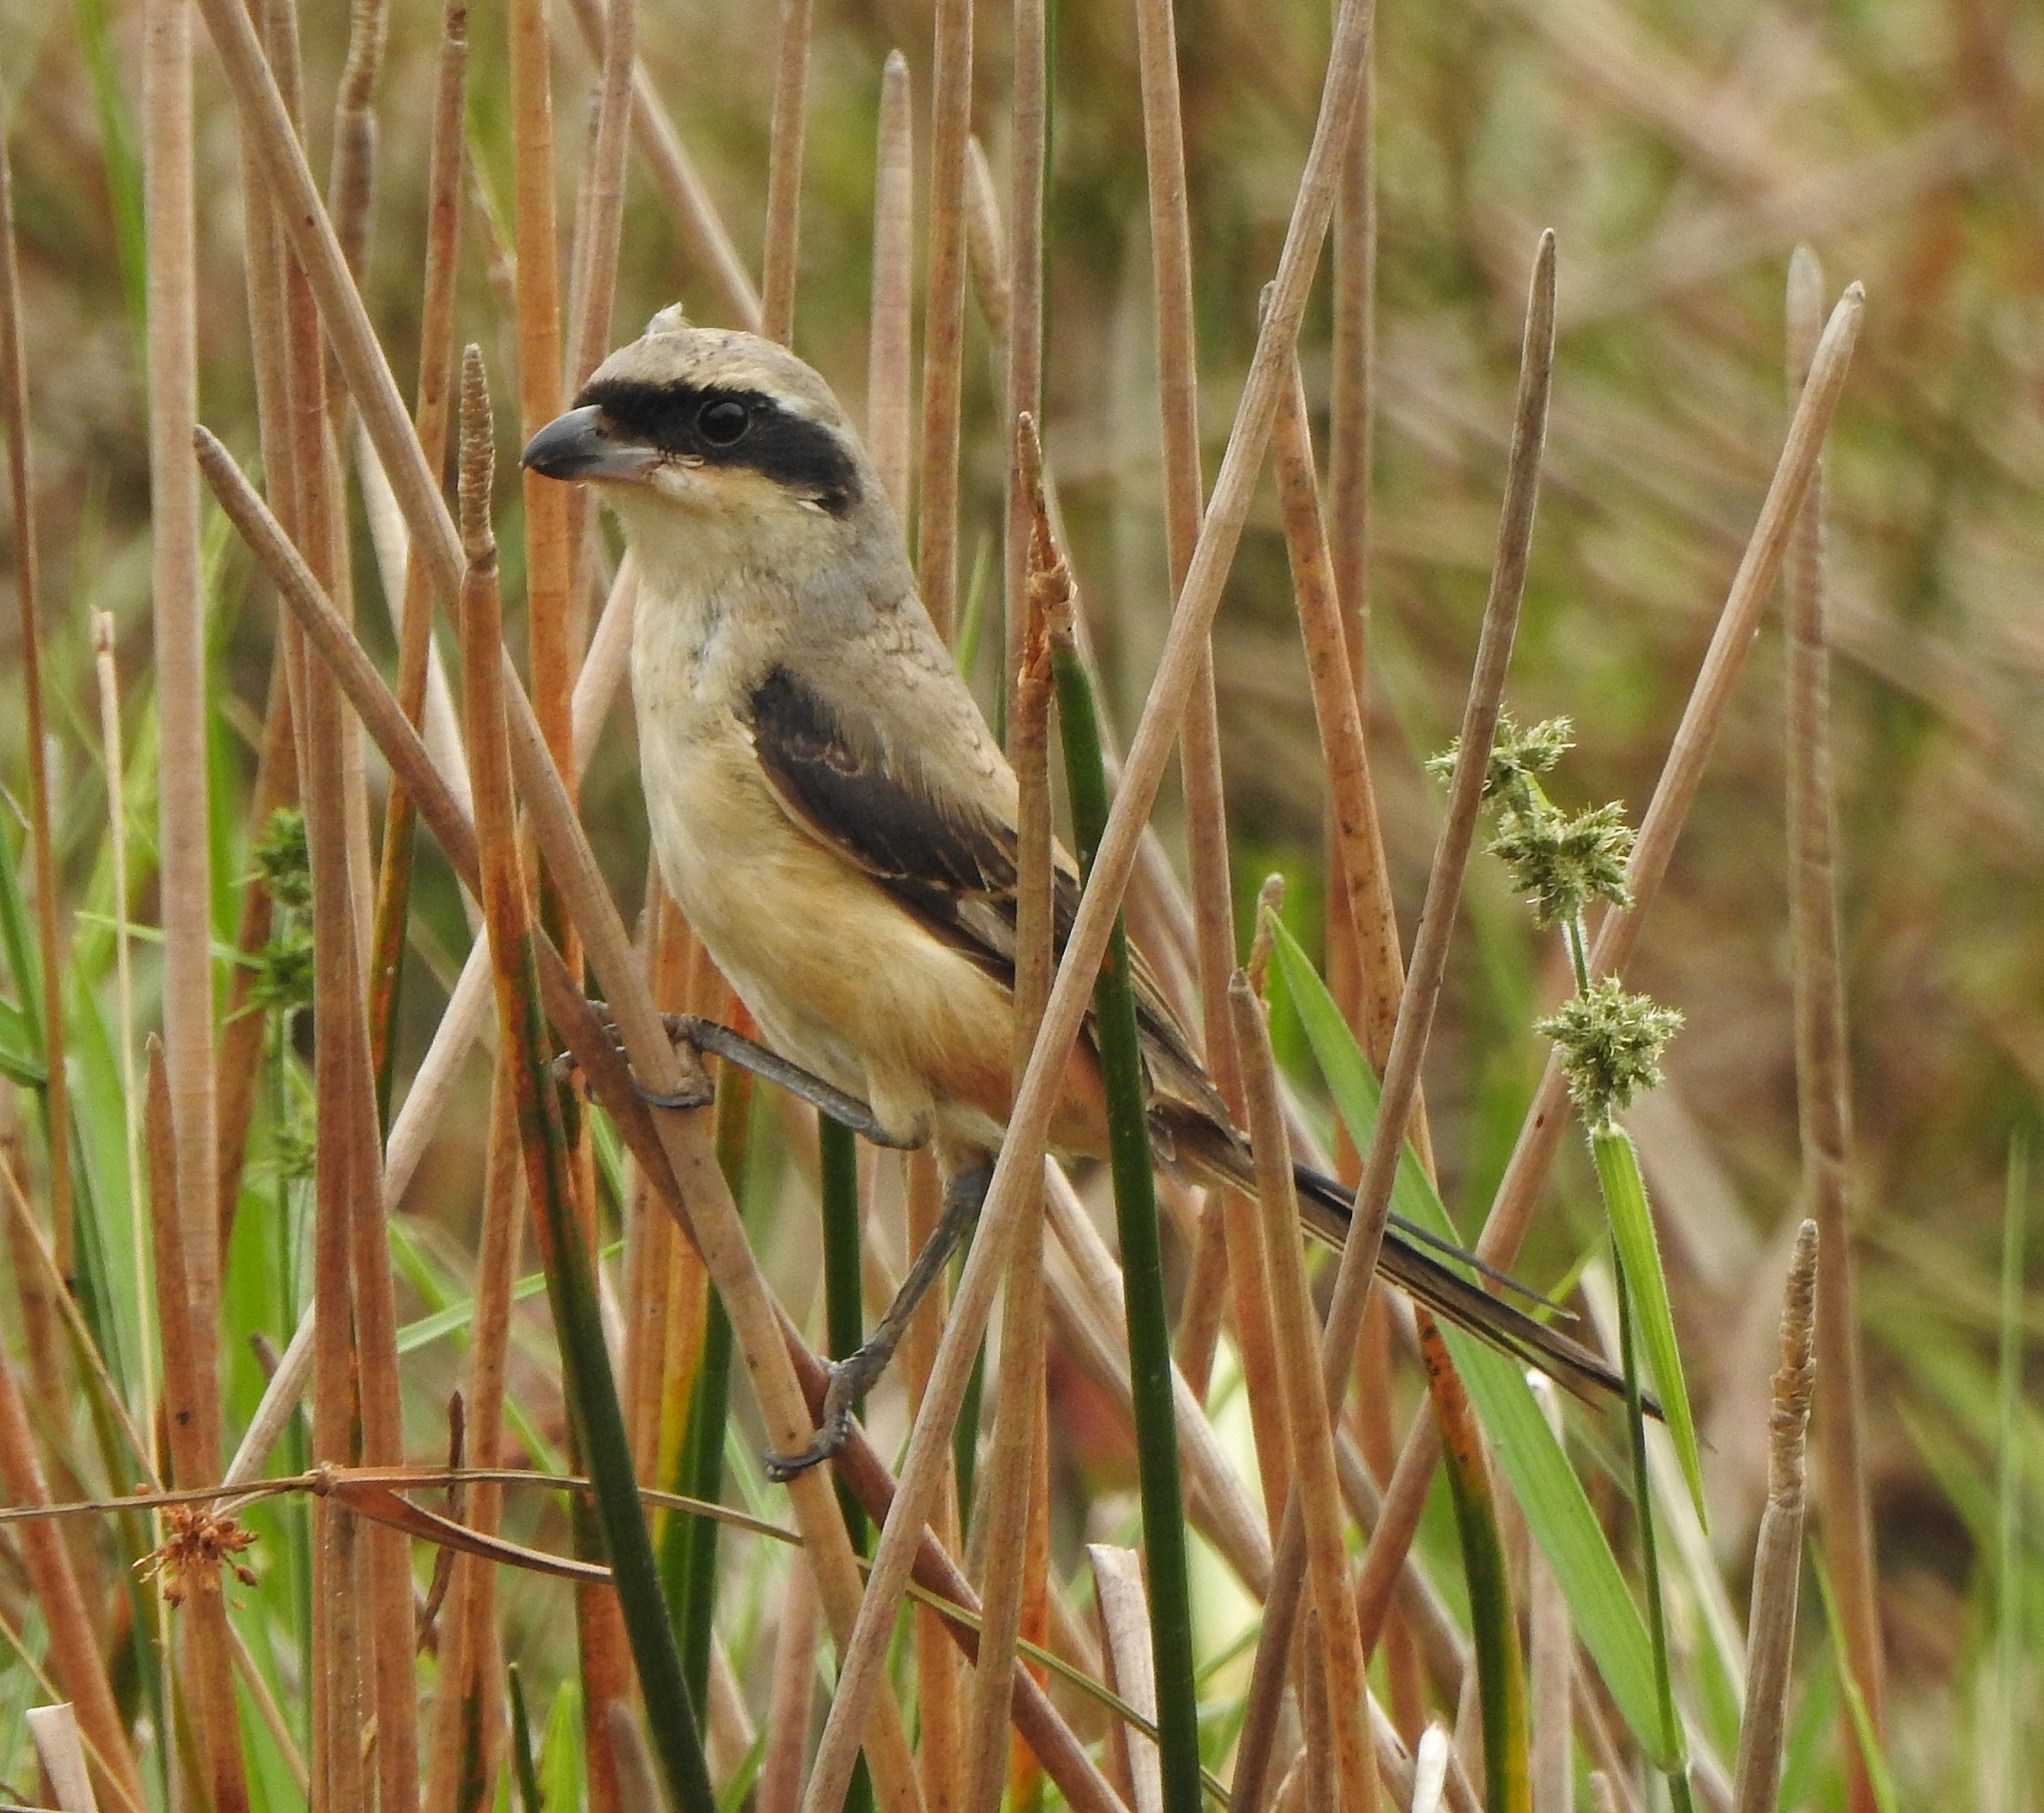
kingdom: Animalia
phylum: Chordata
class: Aves
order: Passeriformes
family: Laniidae
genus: Lanius
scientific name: Lanius schach
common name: Long-tailed shrike
